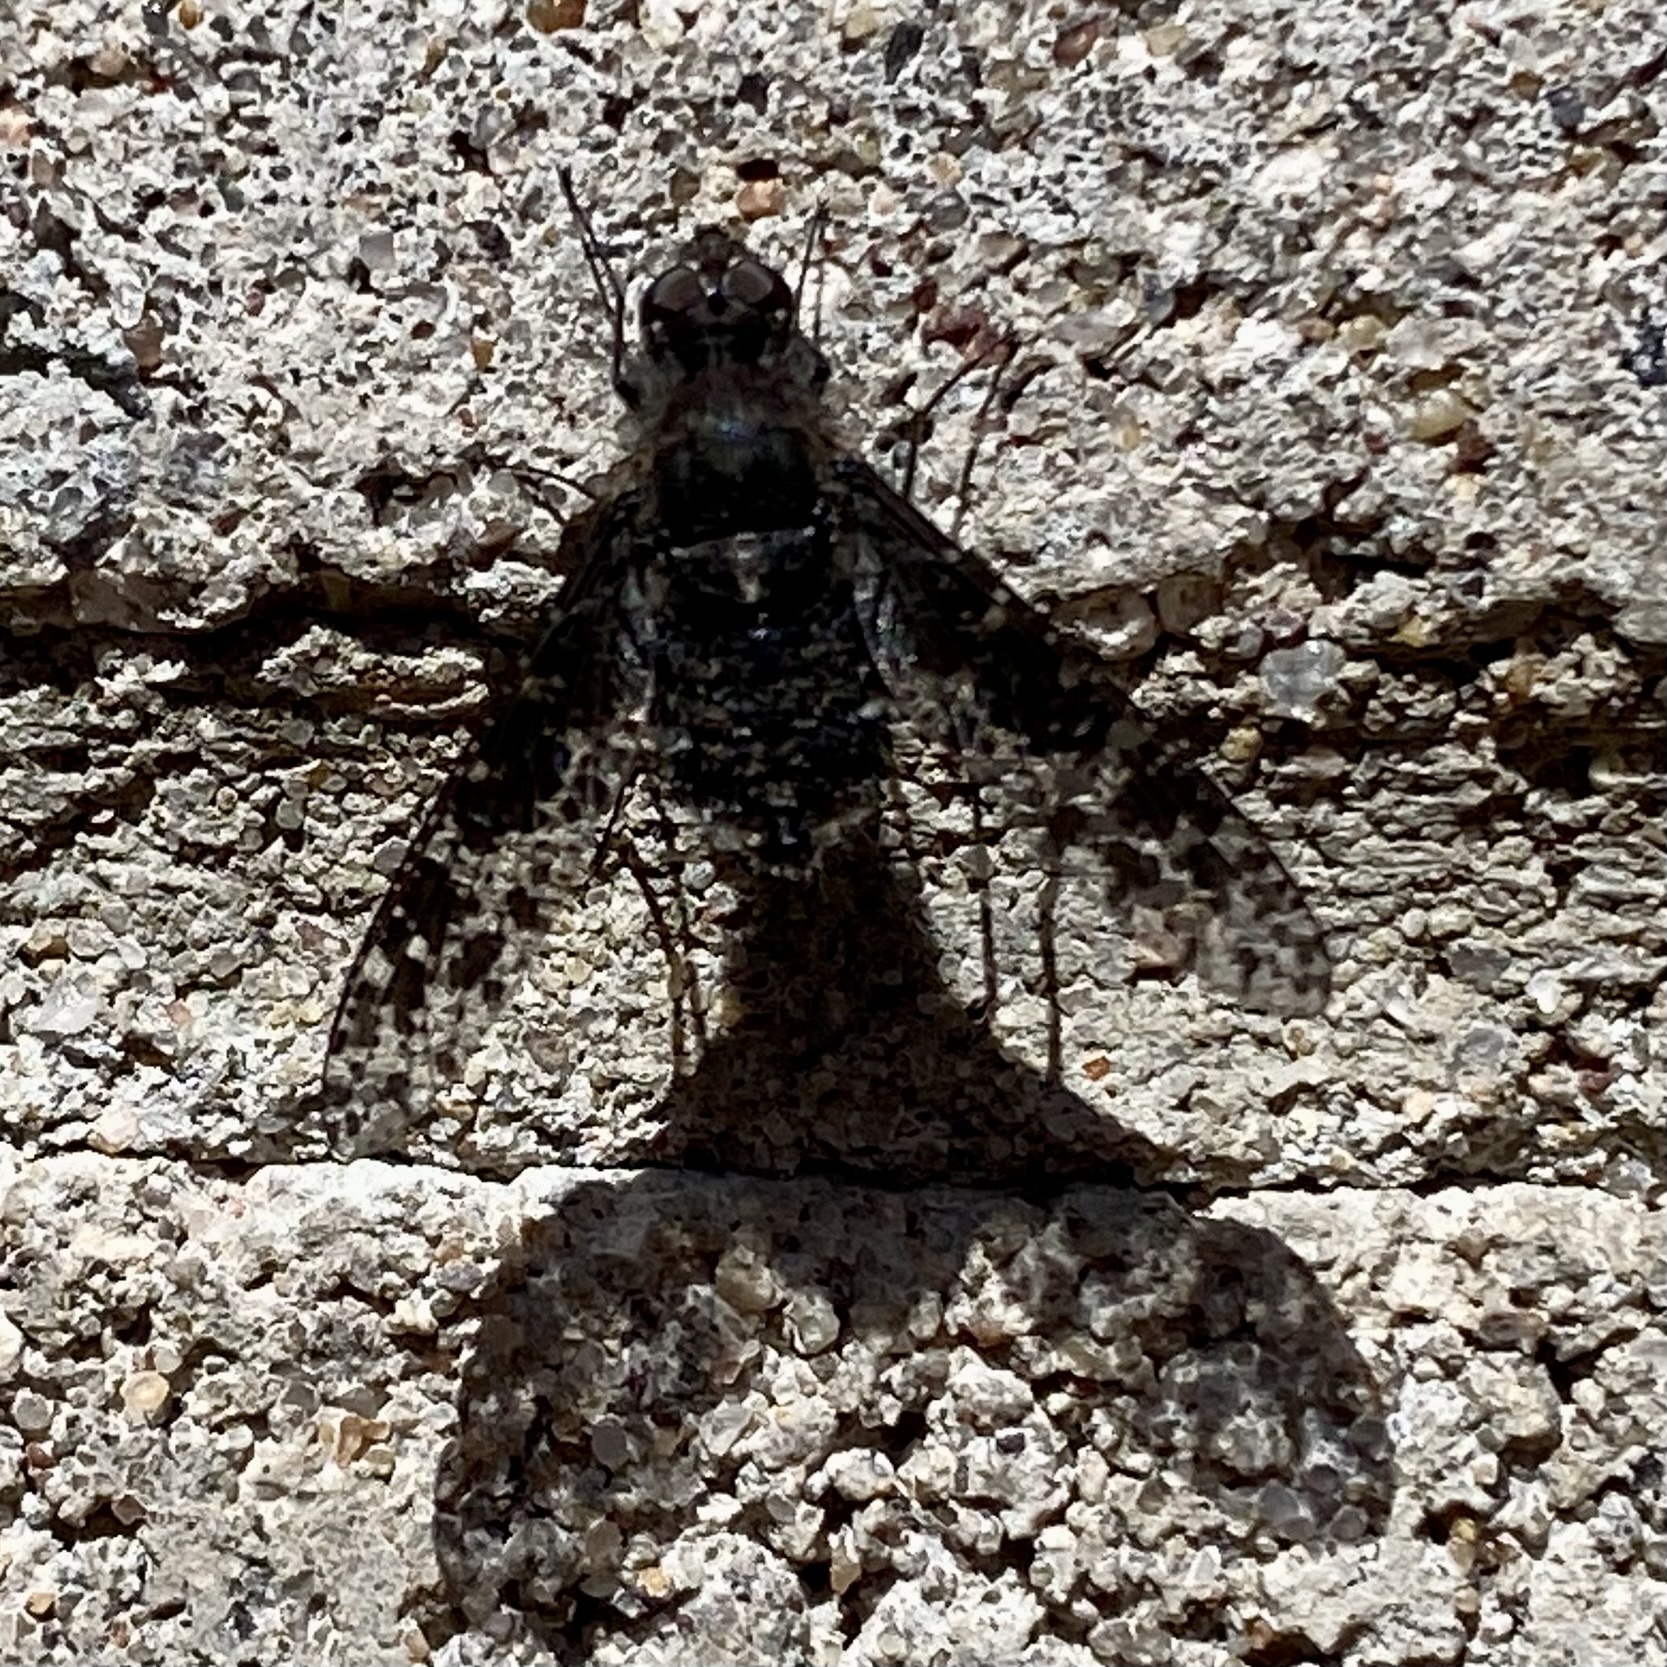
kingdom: Animalia
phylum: Arthropoda
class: Insecta
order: Diptera
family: Bombyliidae
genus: Anthrax
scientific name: Anthrax
